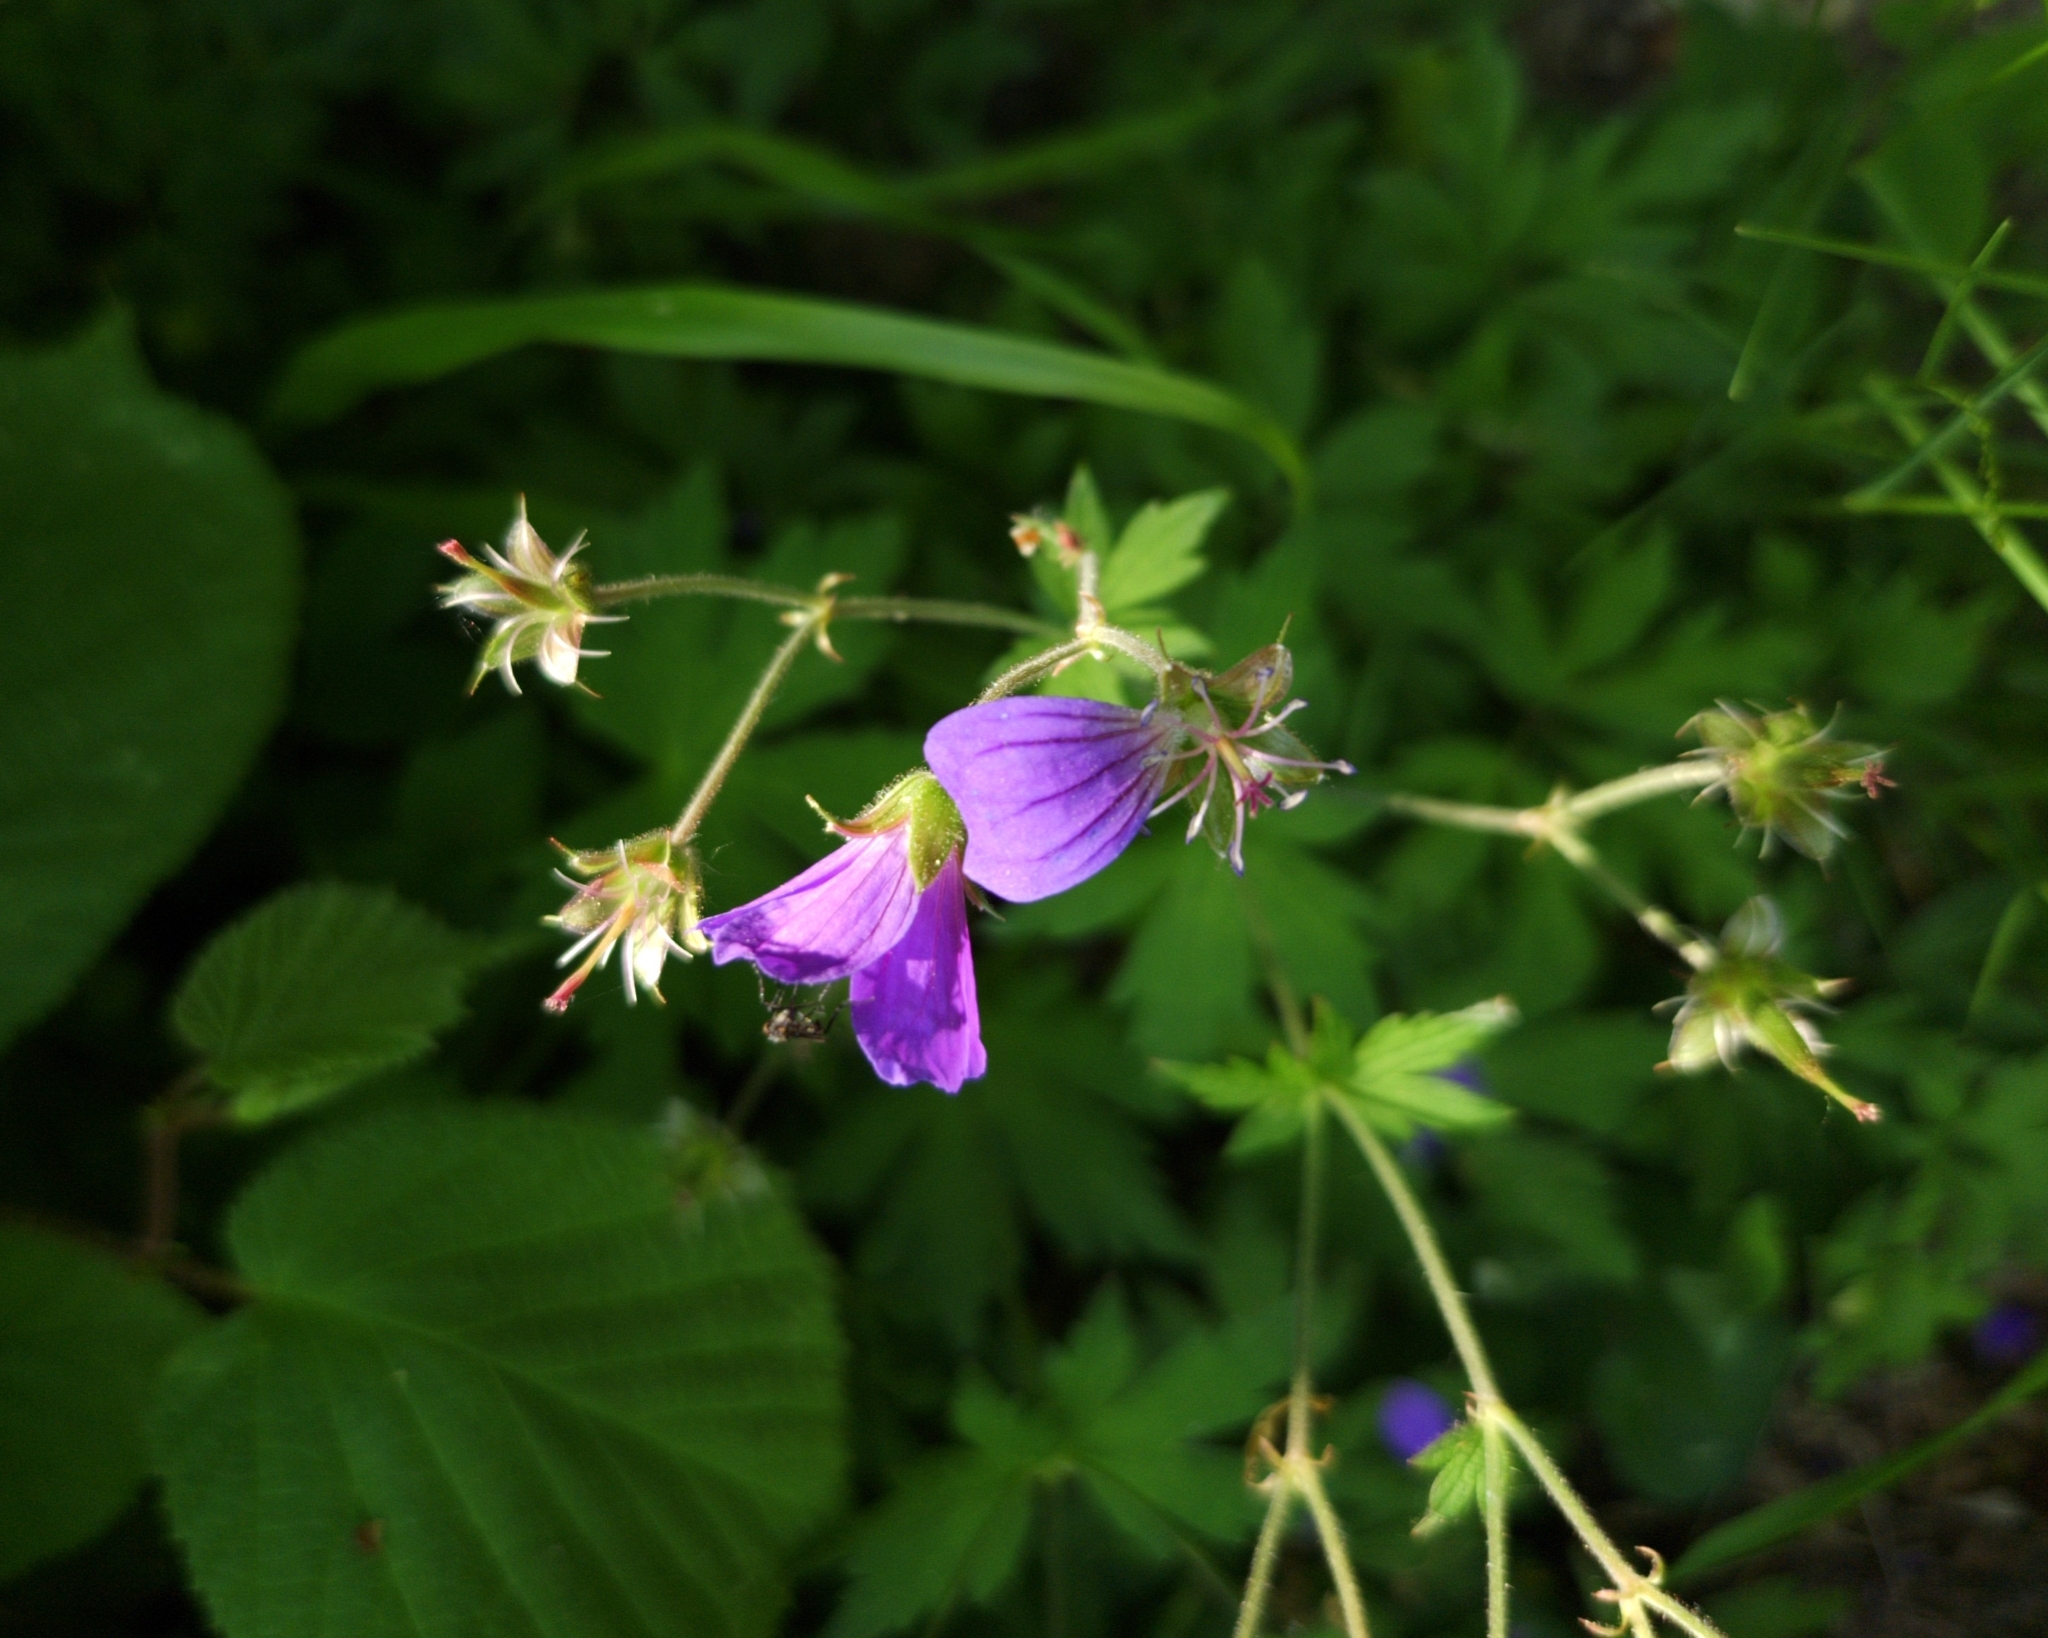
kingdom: Plantae
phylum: Tracheophyta
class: Magnoliopsida
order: Geraniales
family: Geraniaceae
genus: Geranium
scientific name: Geranium sylvaticum
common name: Wood crane's-bill
